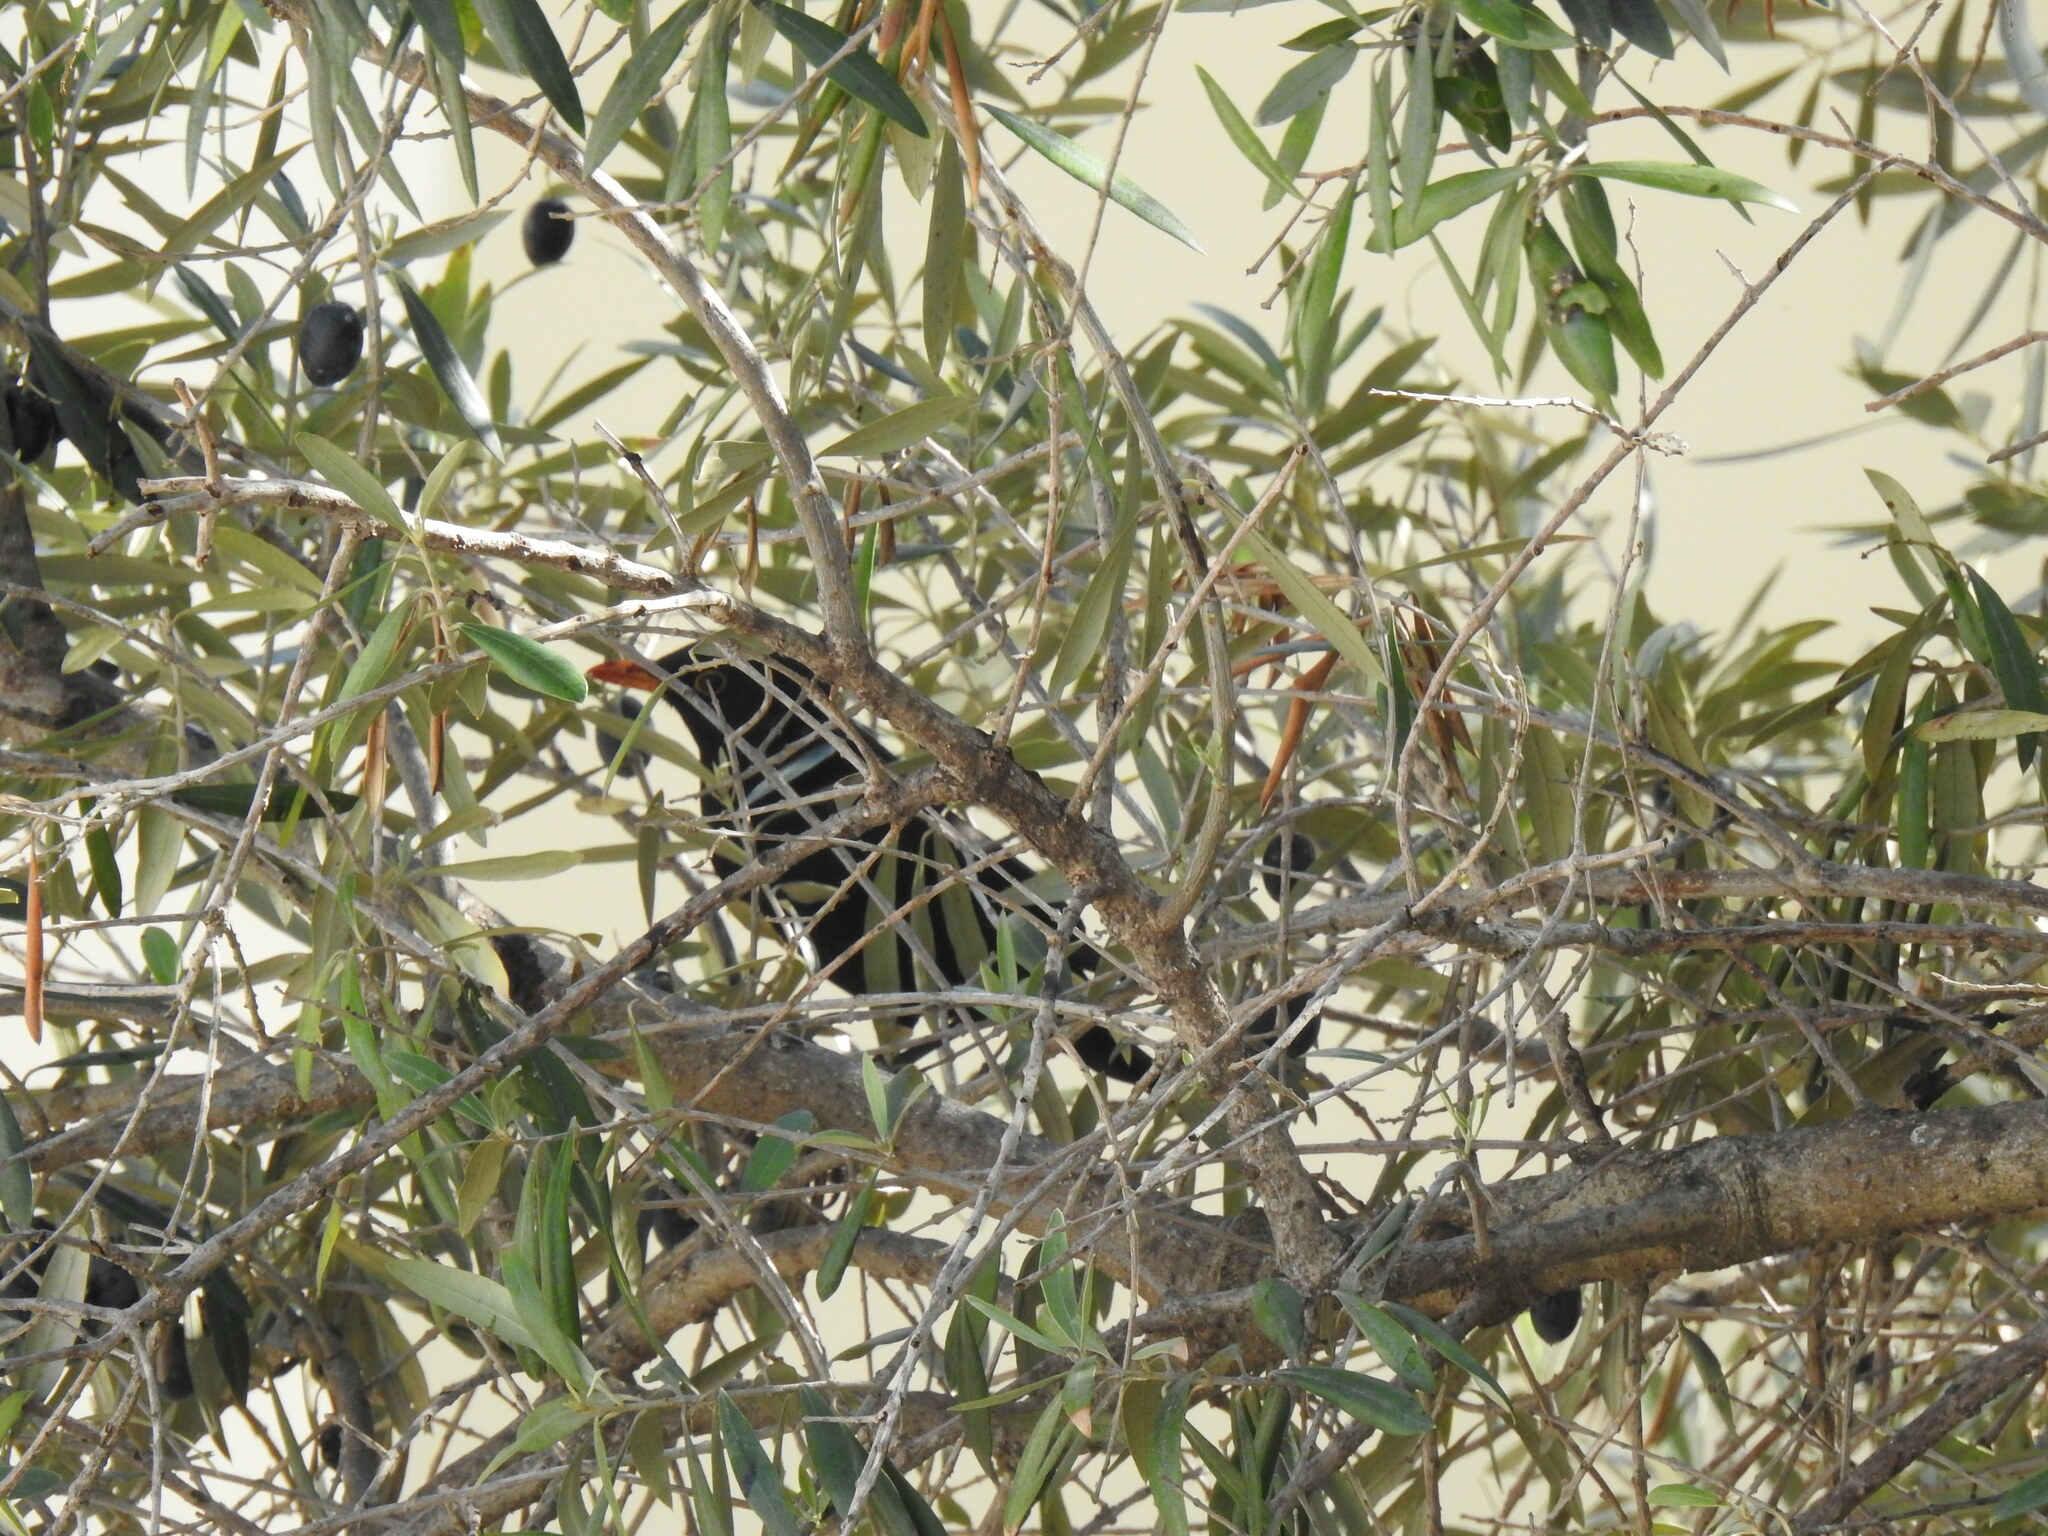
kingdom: Animalia
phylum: Chordata
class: Aves
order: Passeriformes
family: Turdidae
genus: Turdus
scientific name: Turdus merula
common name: Common blackbird
